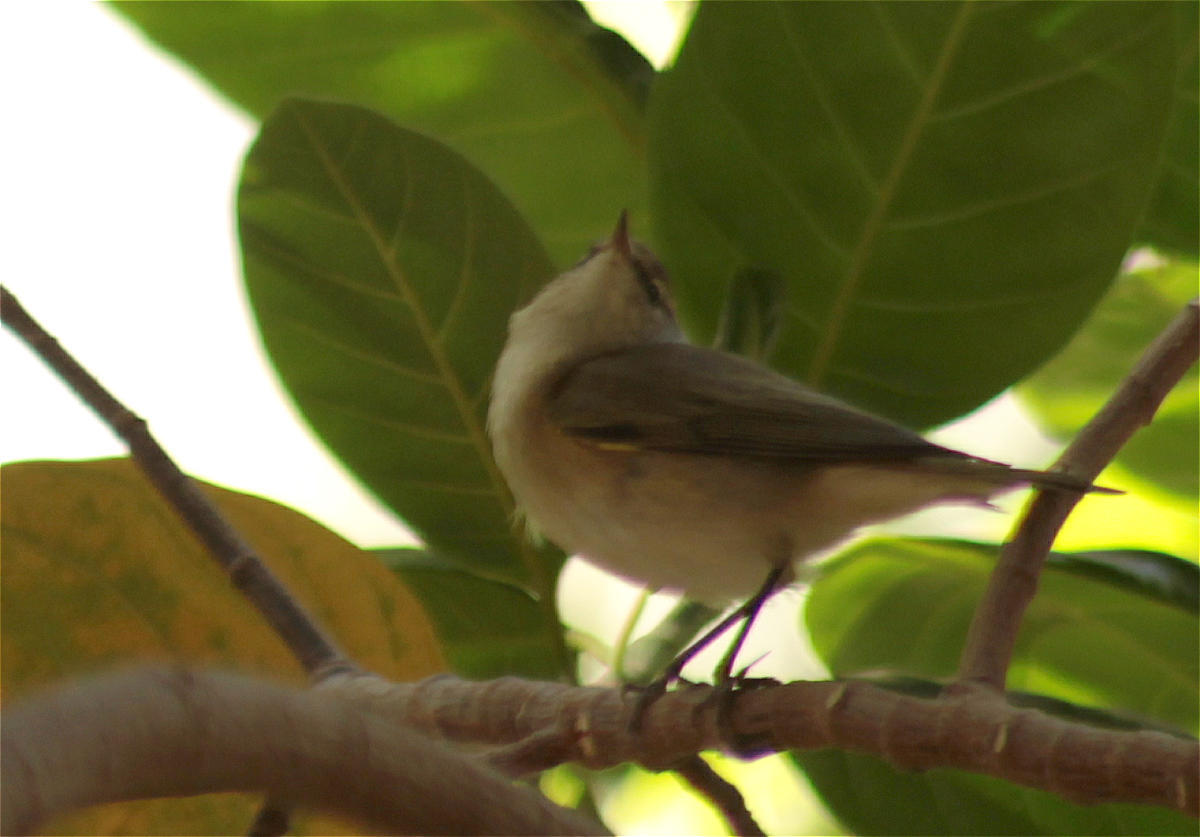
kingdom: Animalia
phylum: Chordata
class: Aves
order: Passeriformes
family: Phylloscopidae
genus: Phylloscopus
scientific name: Phylloscopus collybita
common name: Common chiffchaff
